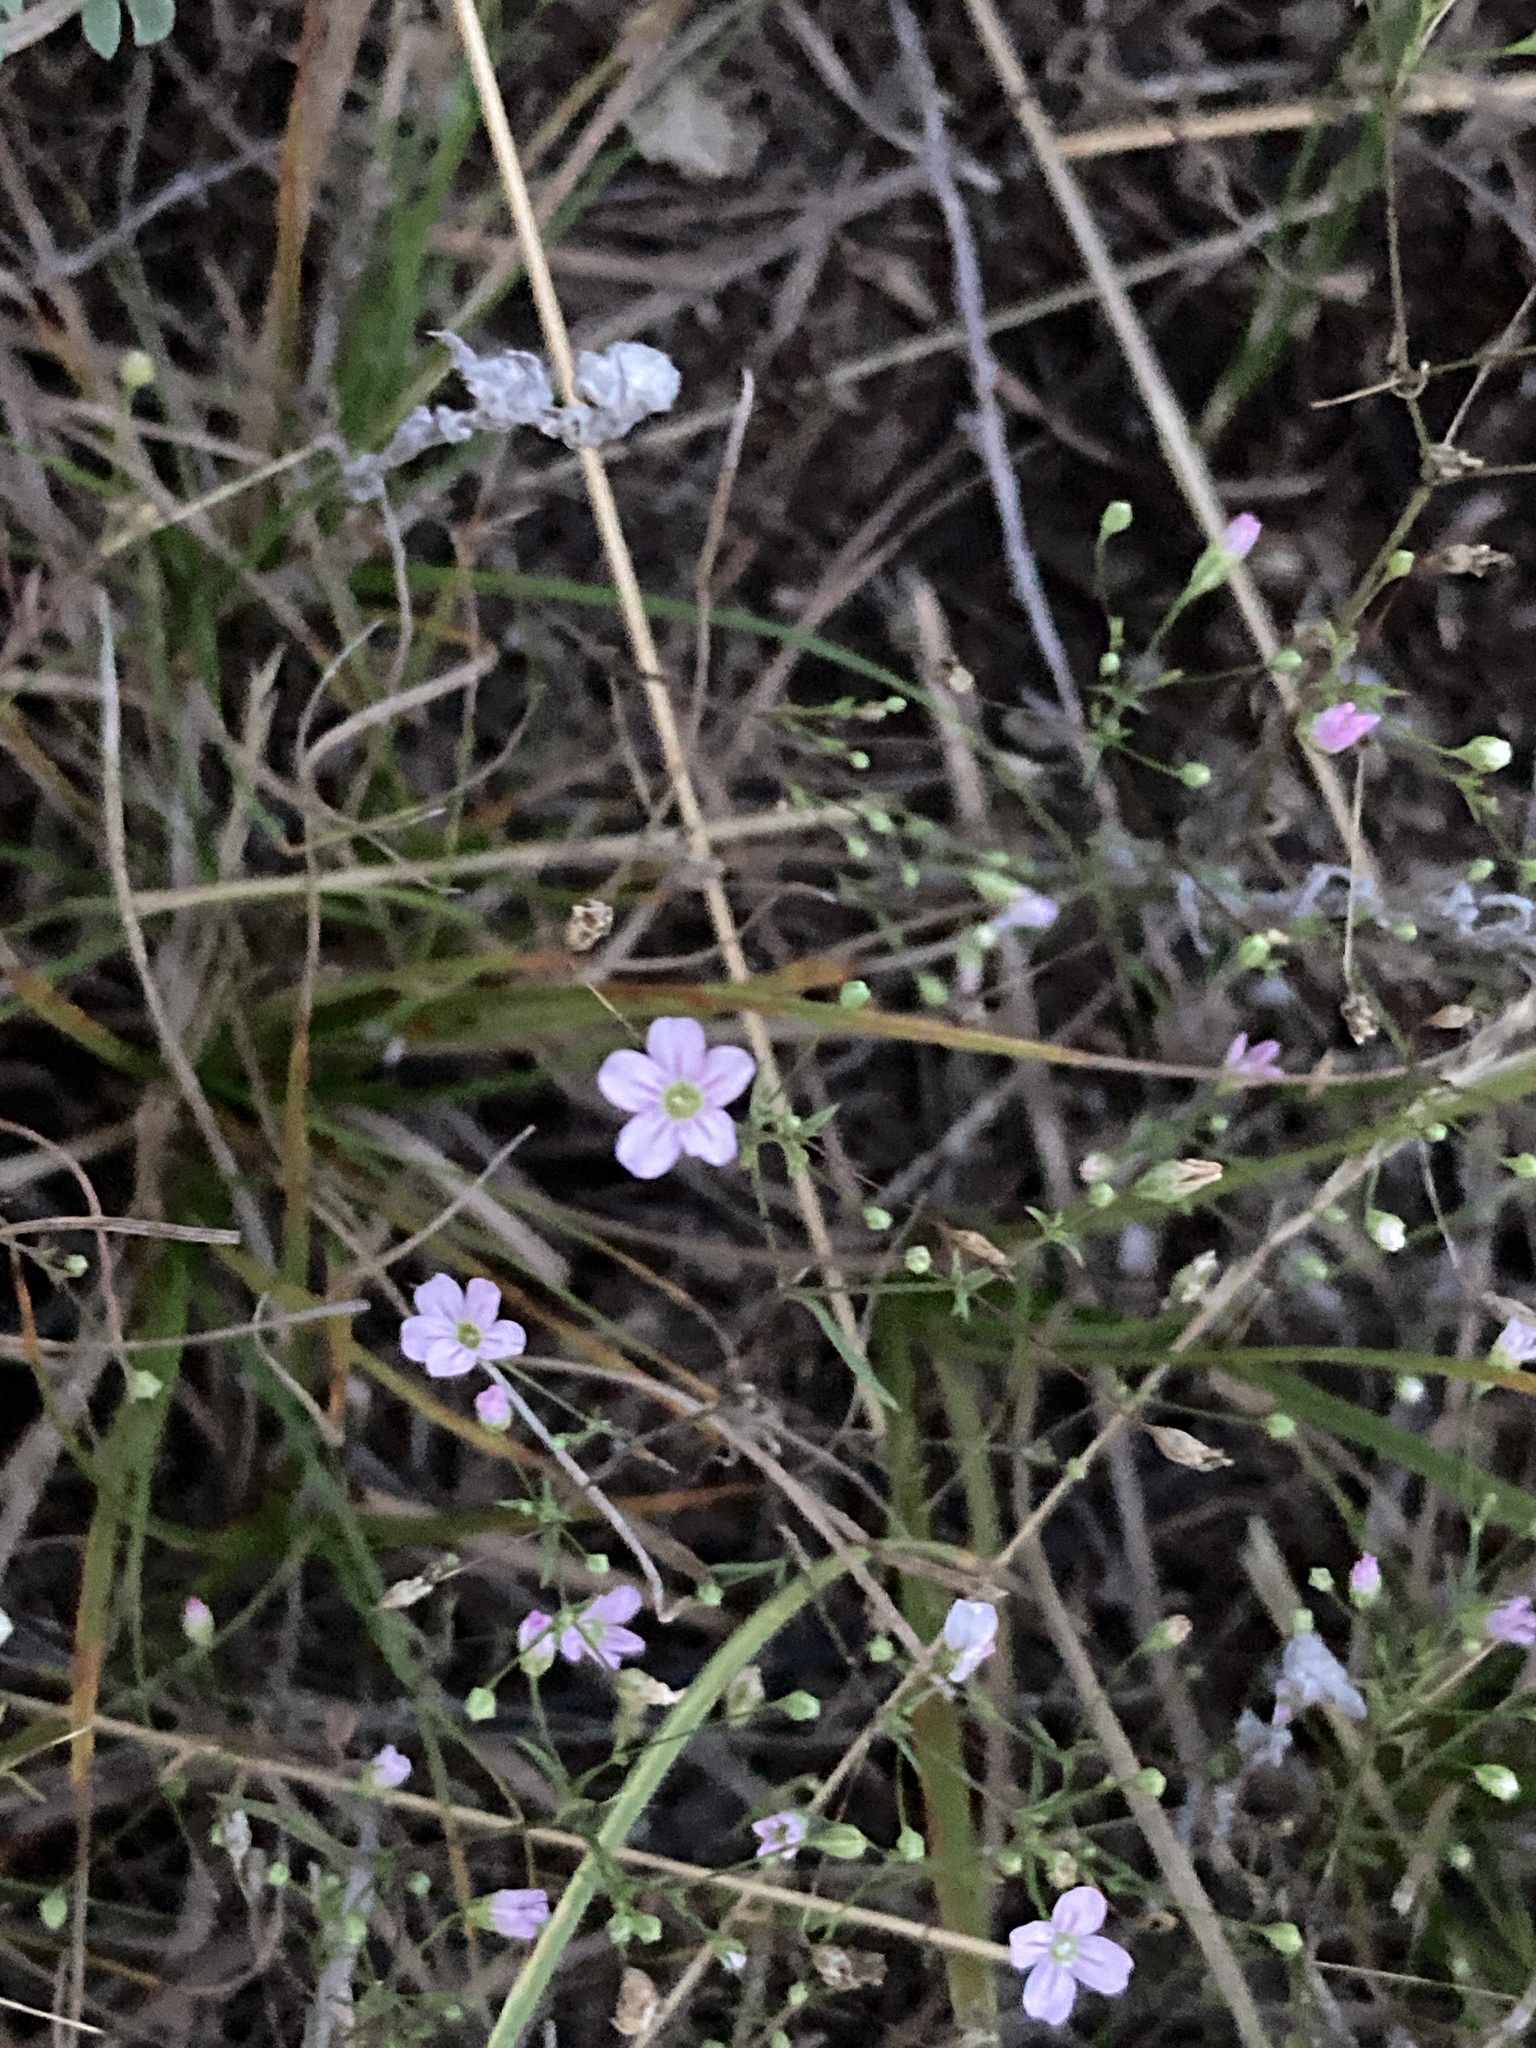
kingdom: Plantae
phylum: Tracheophyta
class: Magnoliopsida
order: Caryophyllales
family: Caryophyllaceae
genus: Psammophiliella
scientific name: Psammophiliella muralis
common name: Cushion baby's-breath
